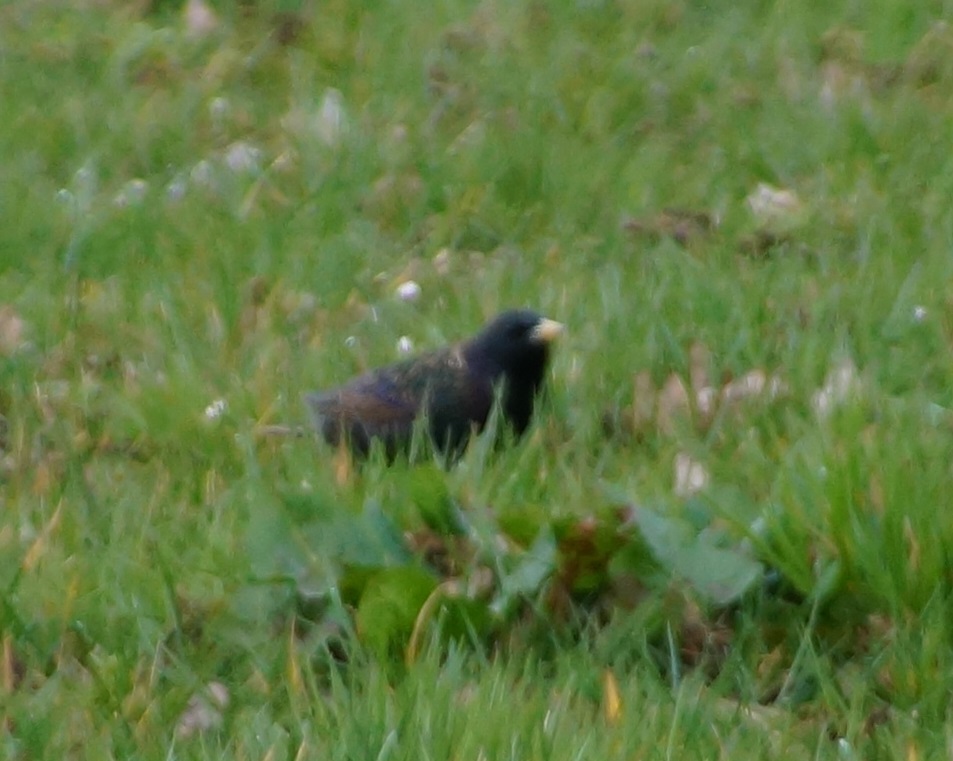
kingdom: Animalia
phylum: Chordata
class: Aves
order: Passeriformes
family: Sturnidae
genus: Sturnus
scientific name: Sturnus vulgaris
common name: Common starling
